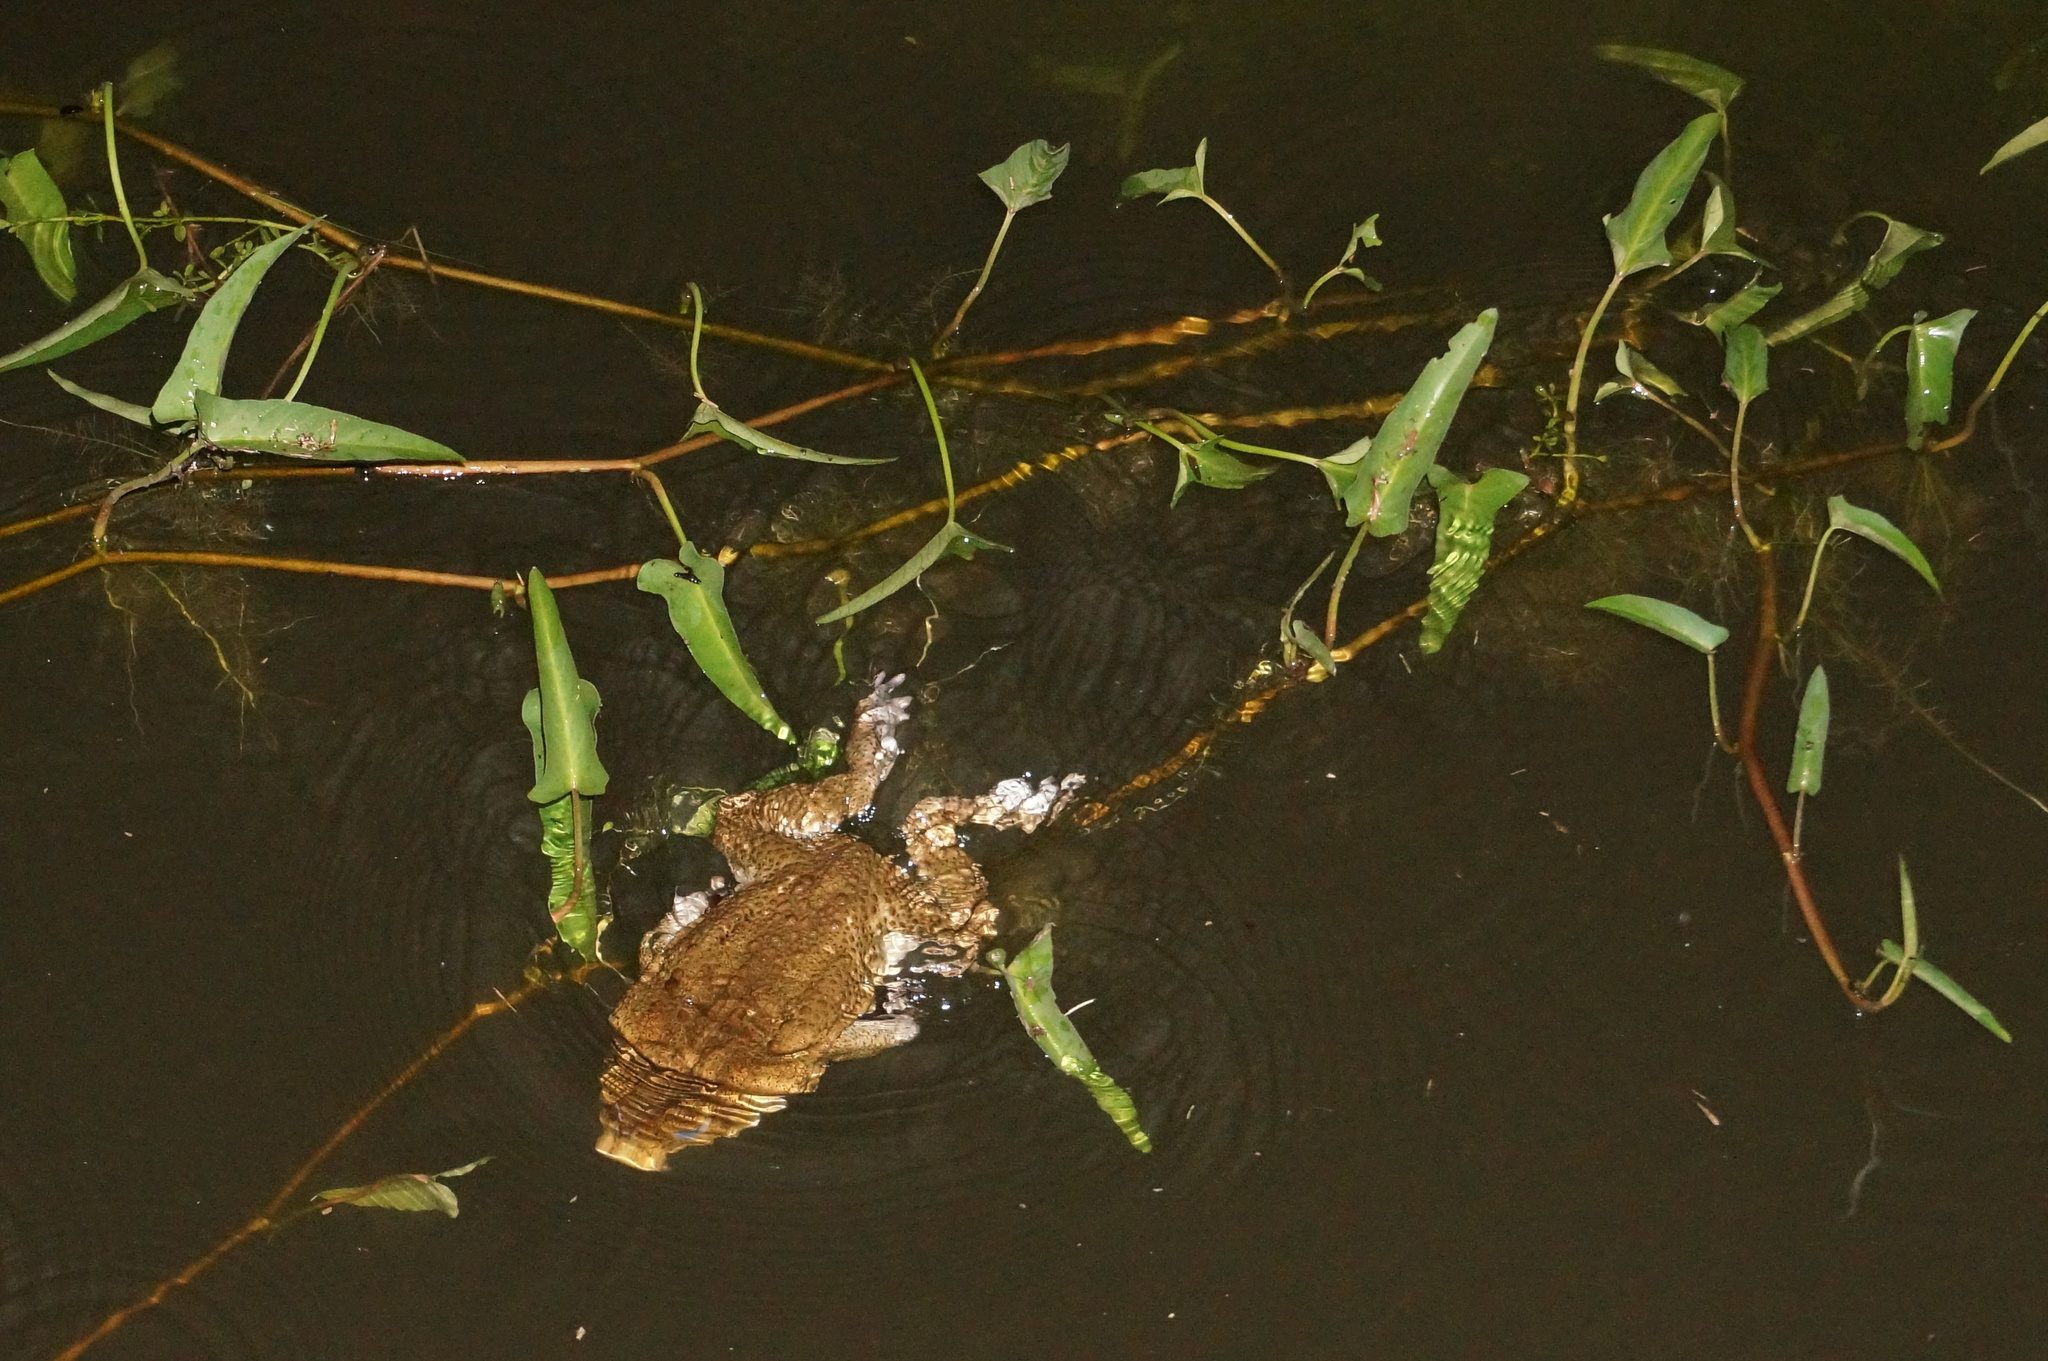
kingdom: Animalia
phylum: Chordata
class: Amphibia
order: Anura
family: Bufonidae
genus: Rhinella
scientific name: Rhinella marina
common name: Cane toad
